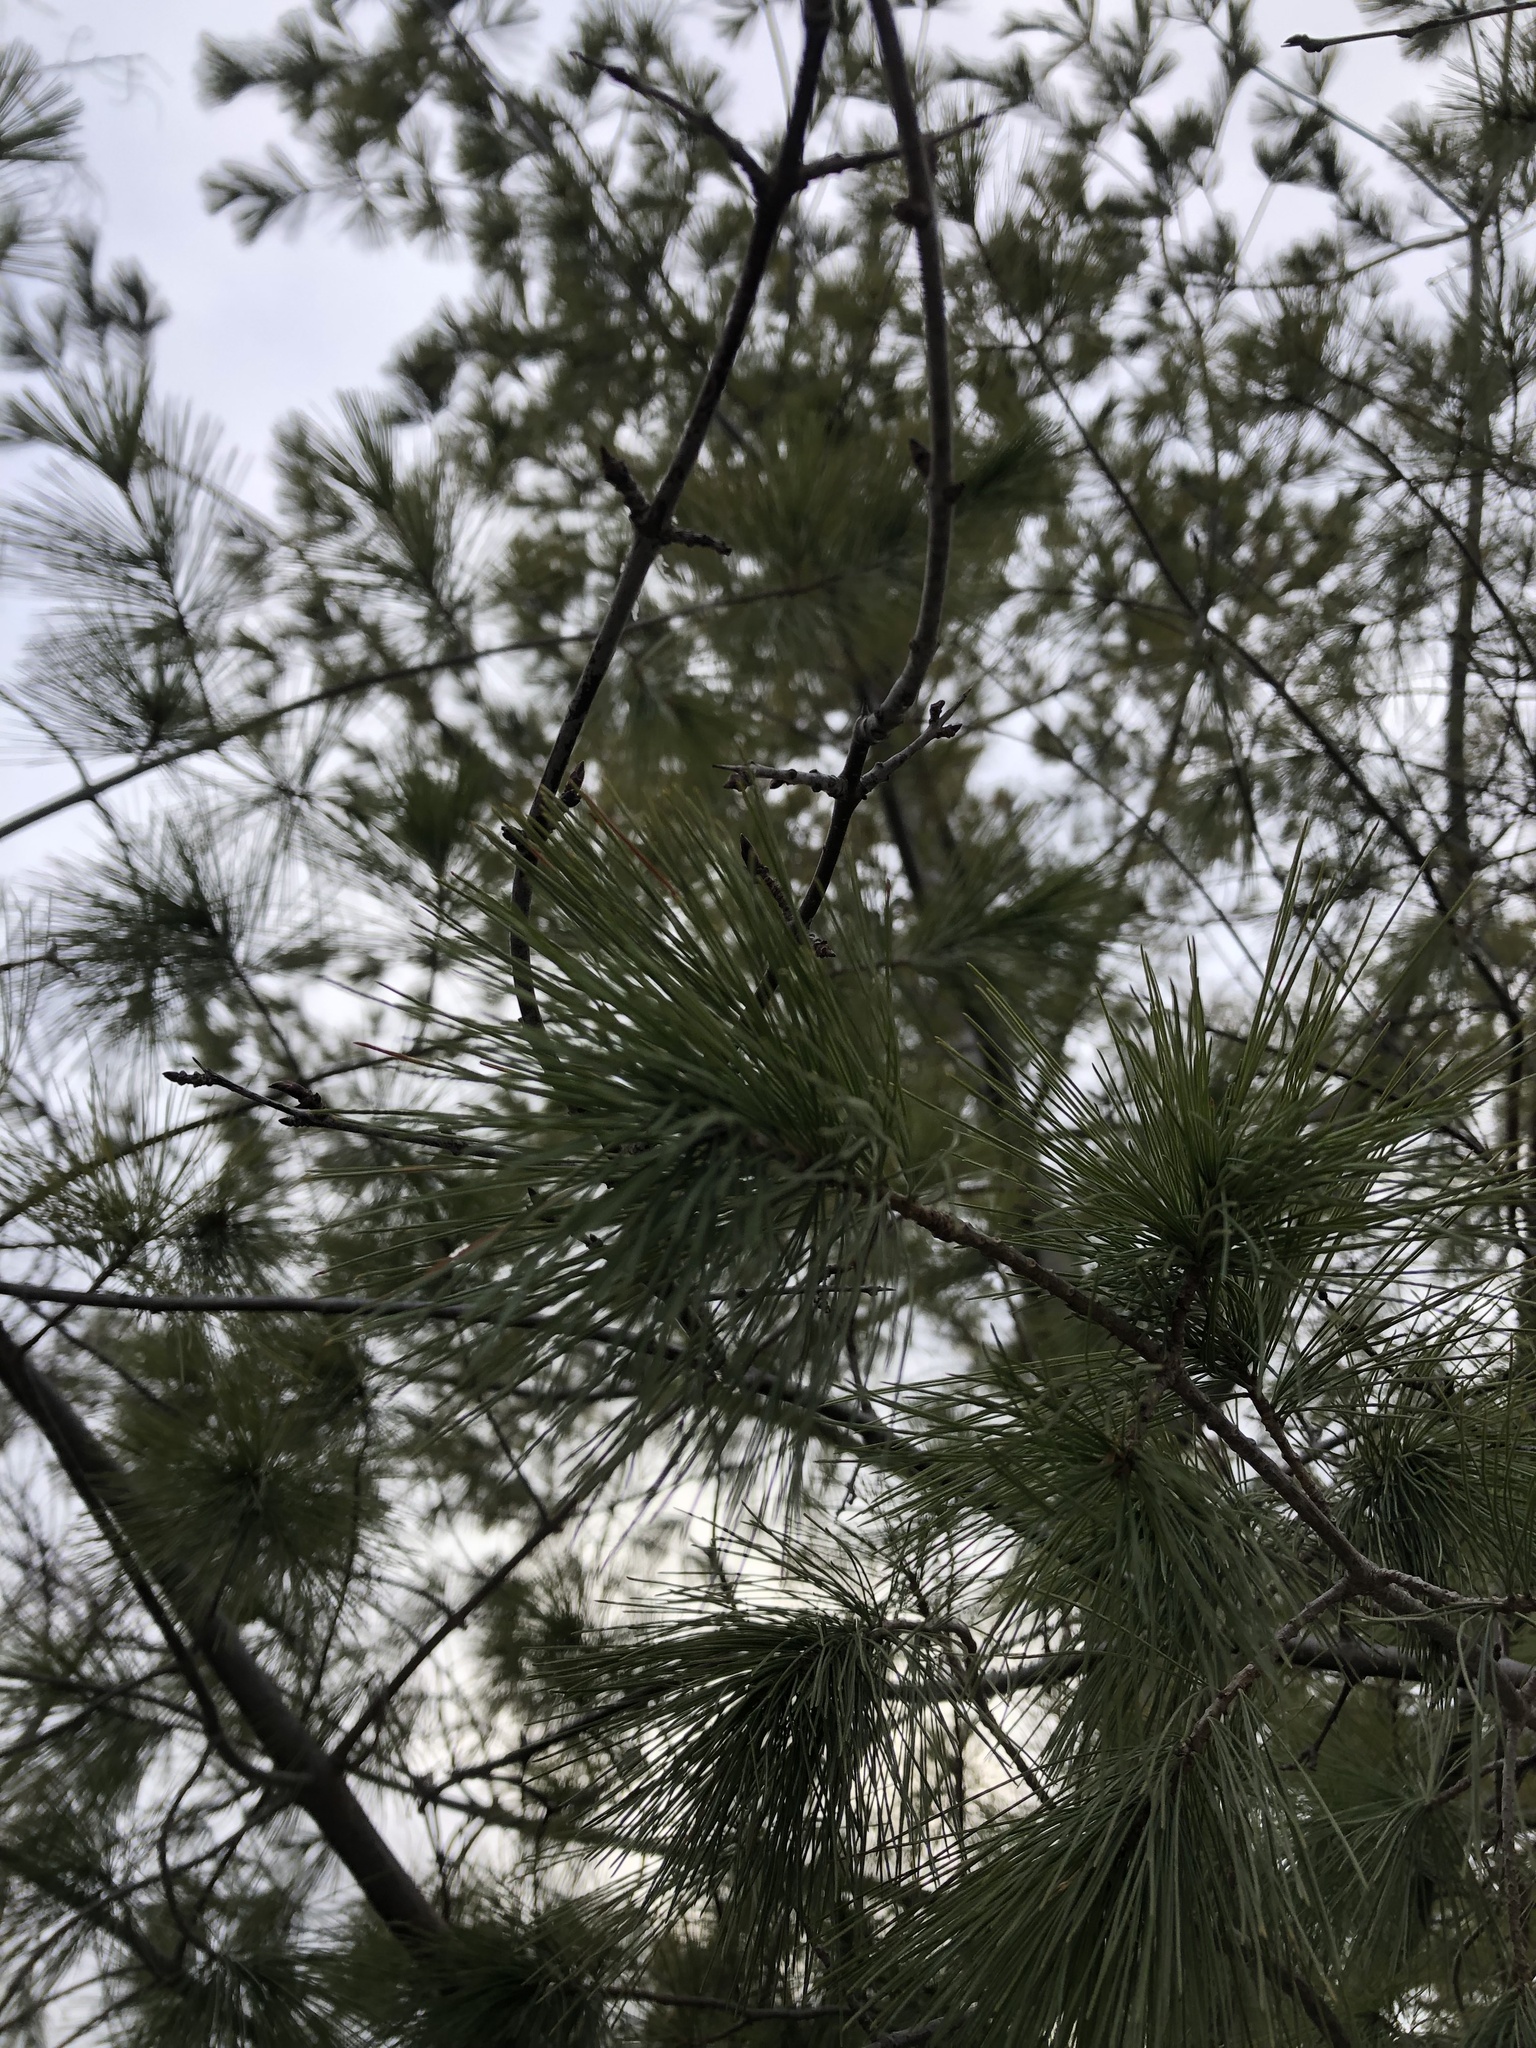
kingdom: Plantae
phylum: Tracheophyta
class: Pinopsida
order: Pinales
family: Pinaceae
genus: Pinus
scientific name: Pinus strobus
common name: Weymouth pine
